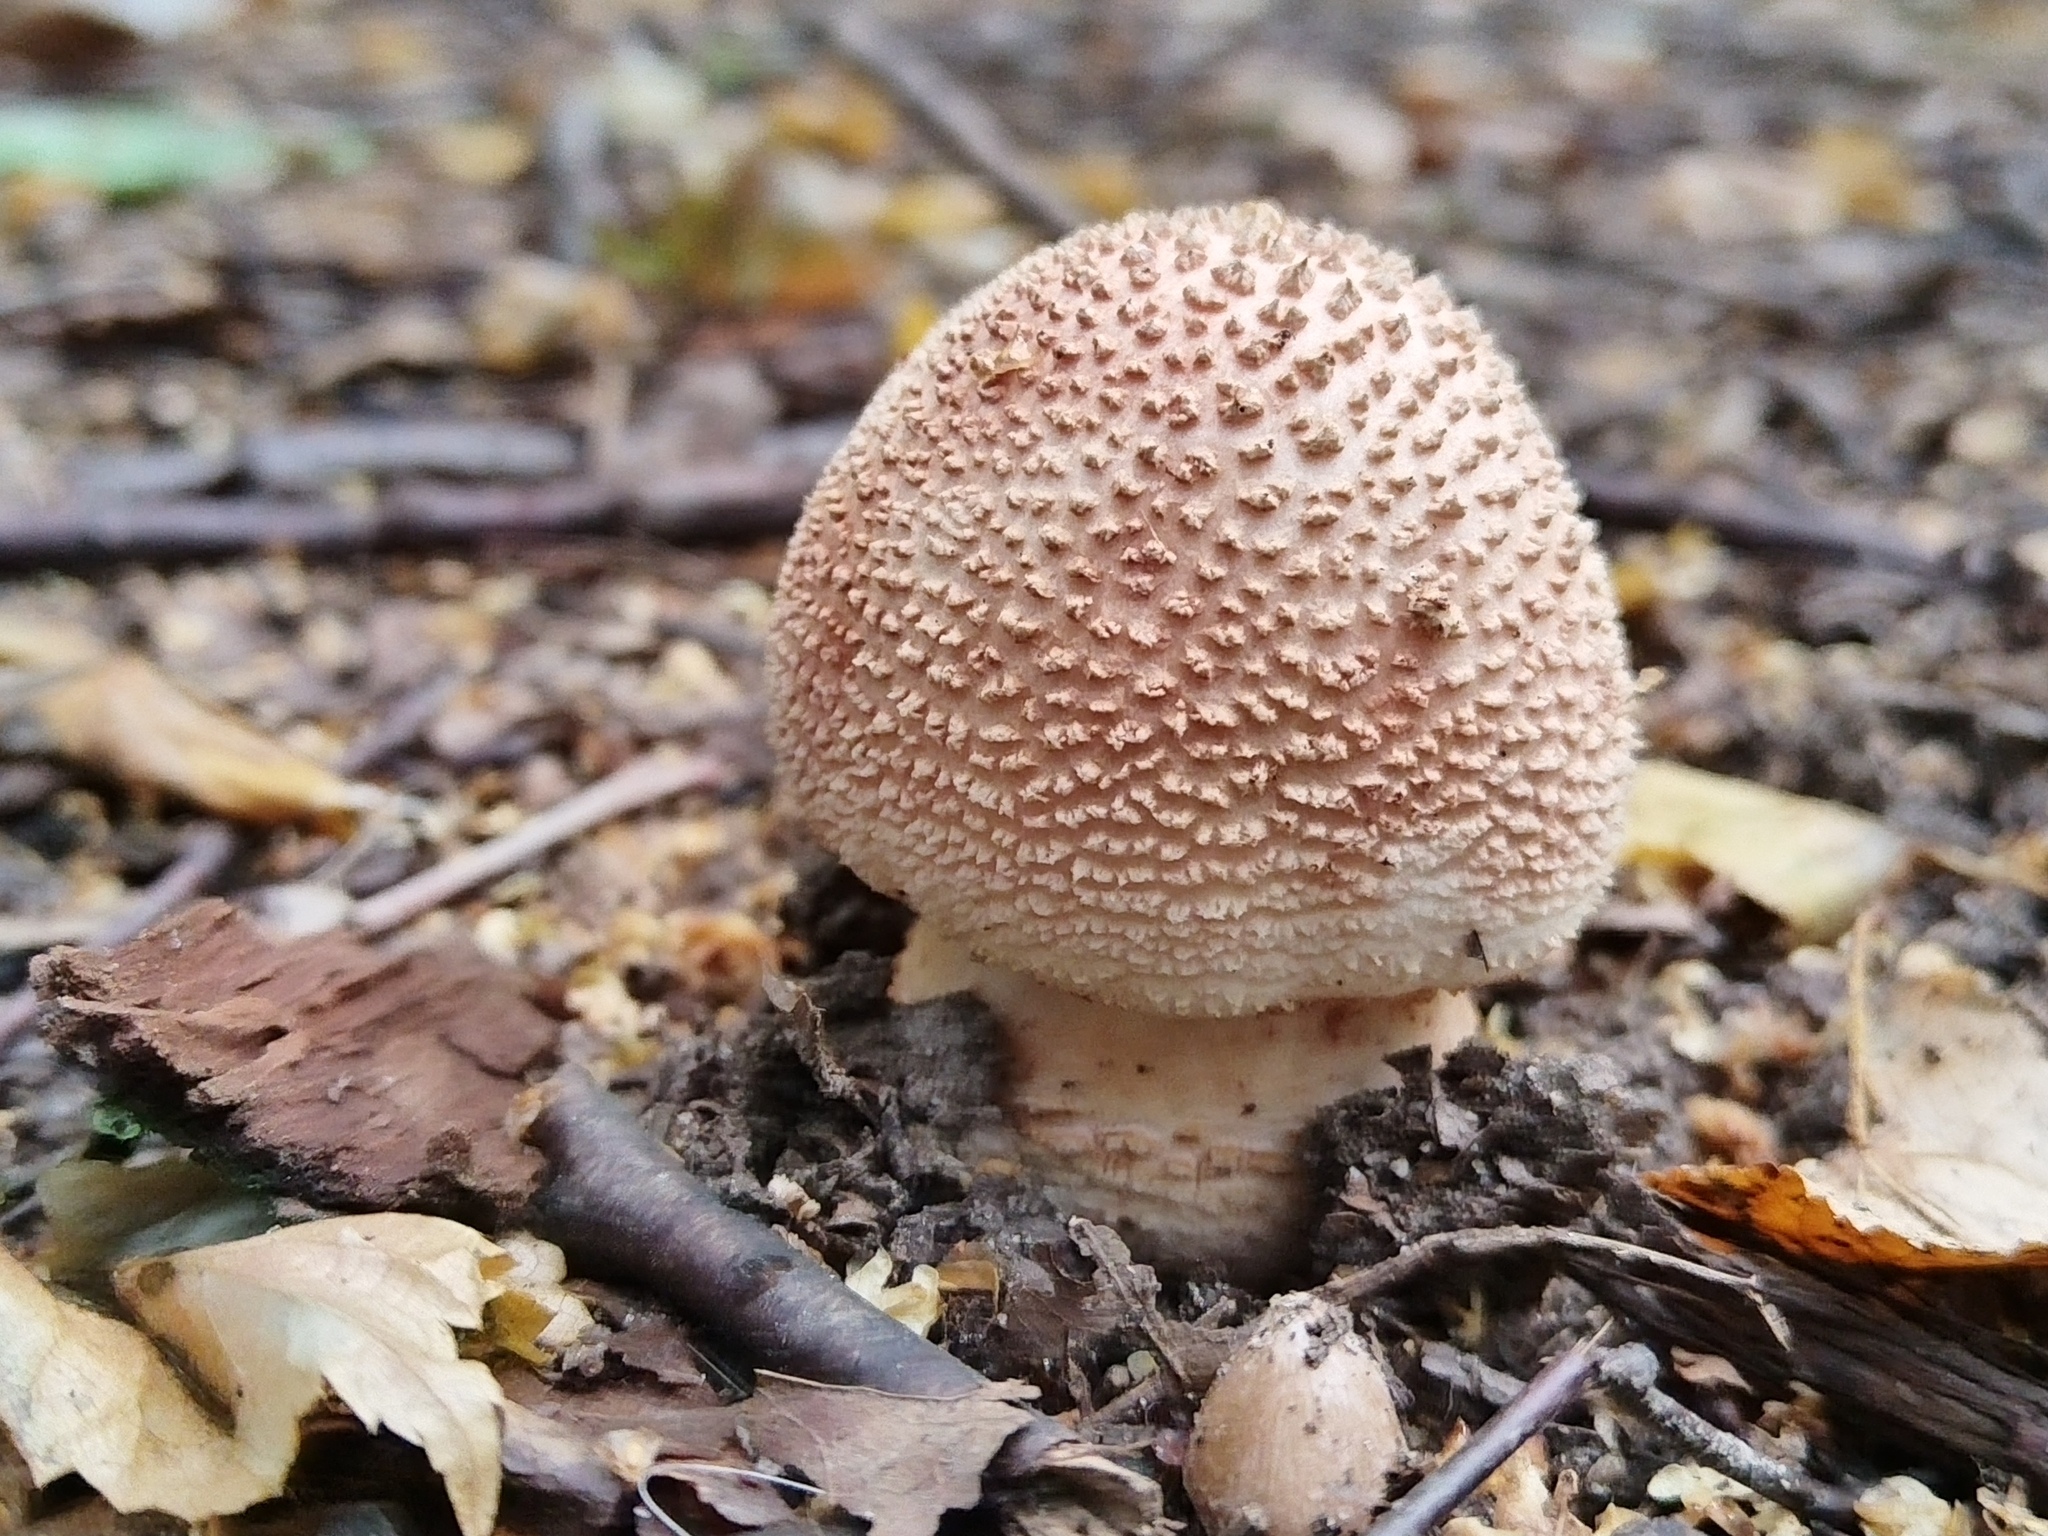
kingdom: Fungi
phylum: Basidiomycota
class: Agaricomycetes
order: Agaricales
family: Amanitaceae
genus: Amanita
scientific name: Amanita rubescens
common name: Blusher
